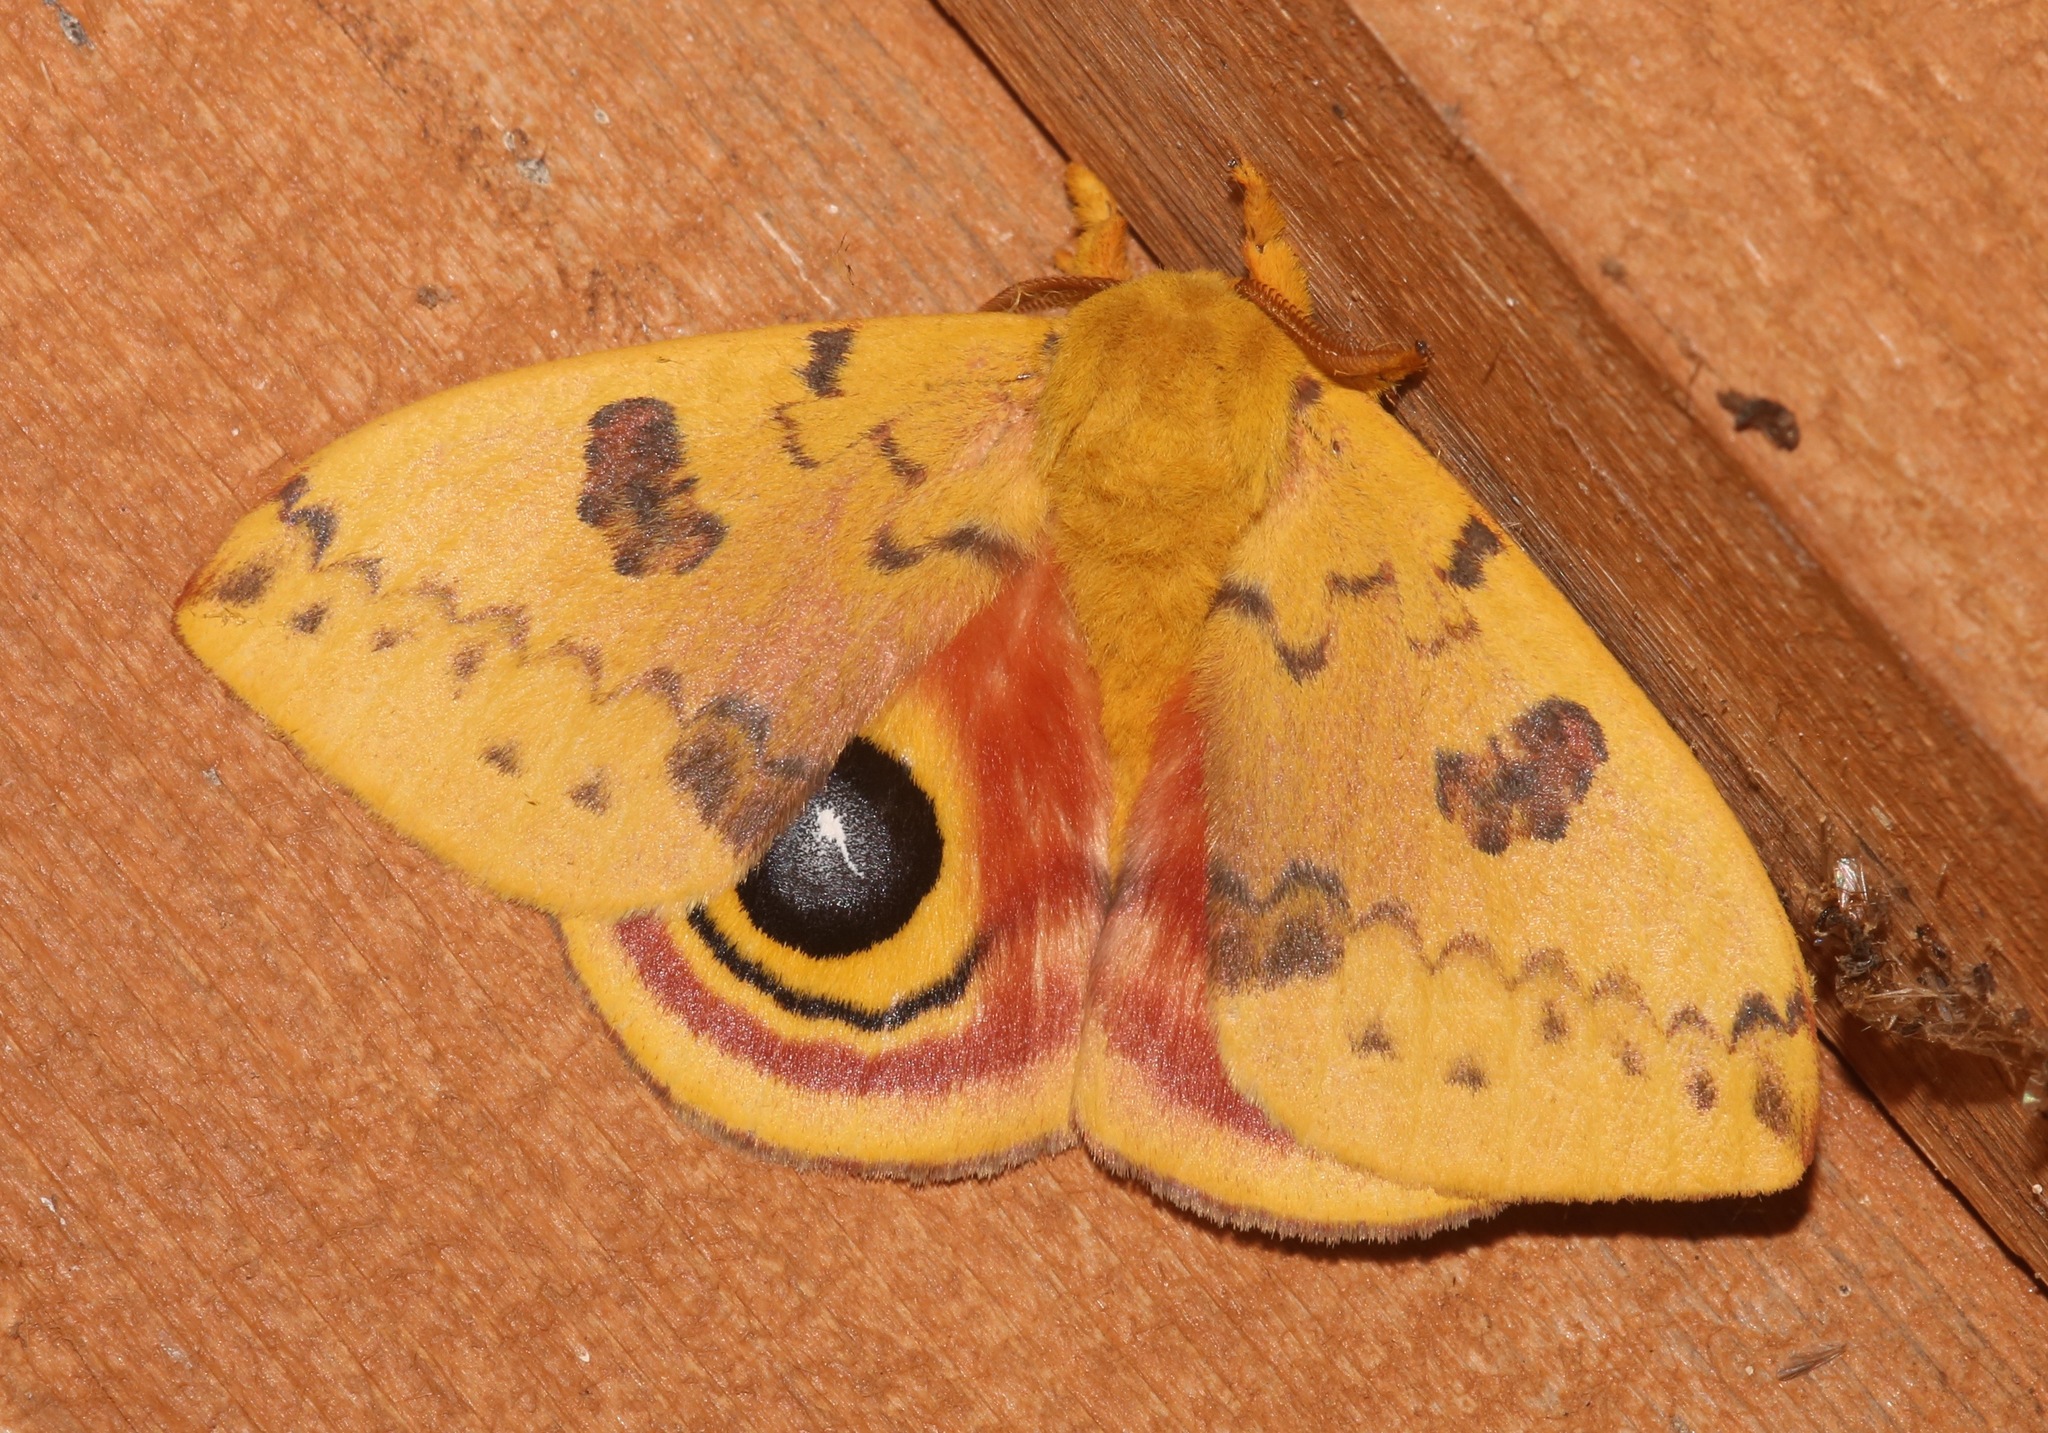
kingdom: Animalia
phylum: Arthropoda
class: Insecta
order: Lepidoptera
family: Saturniidae
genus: Automeris
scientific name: Automeris io
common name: Io moth
